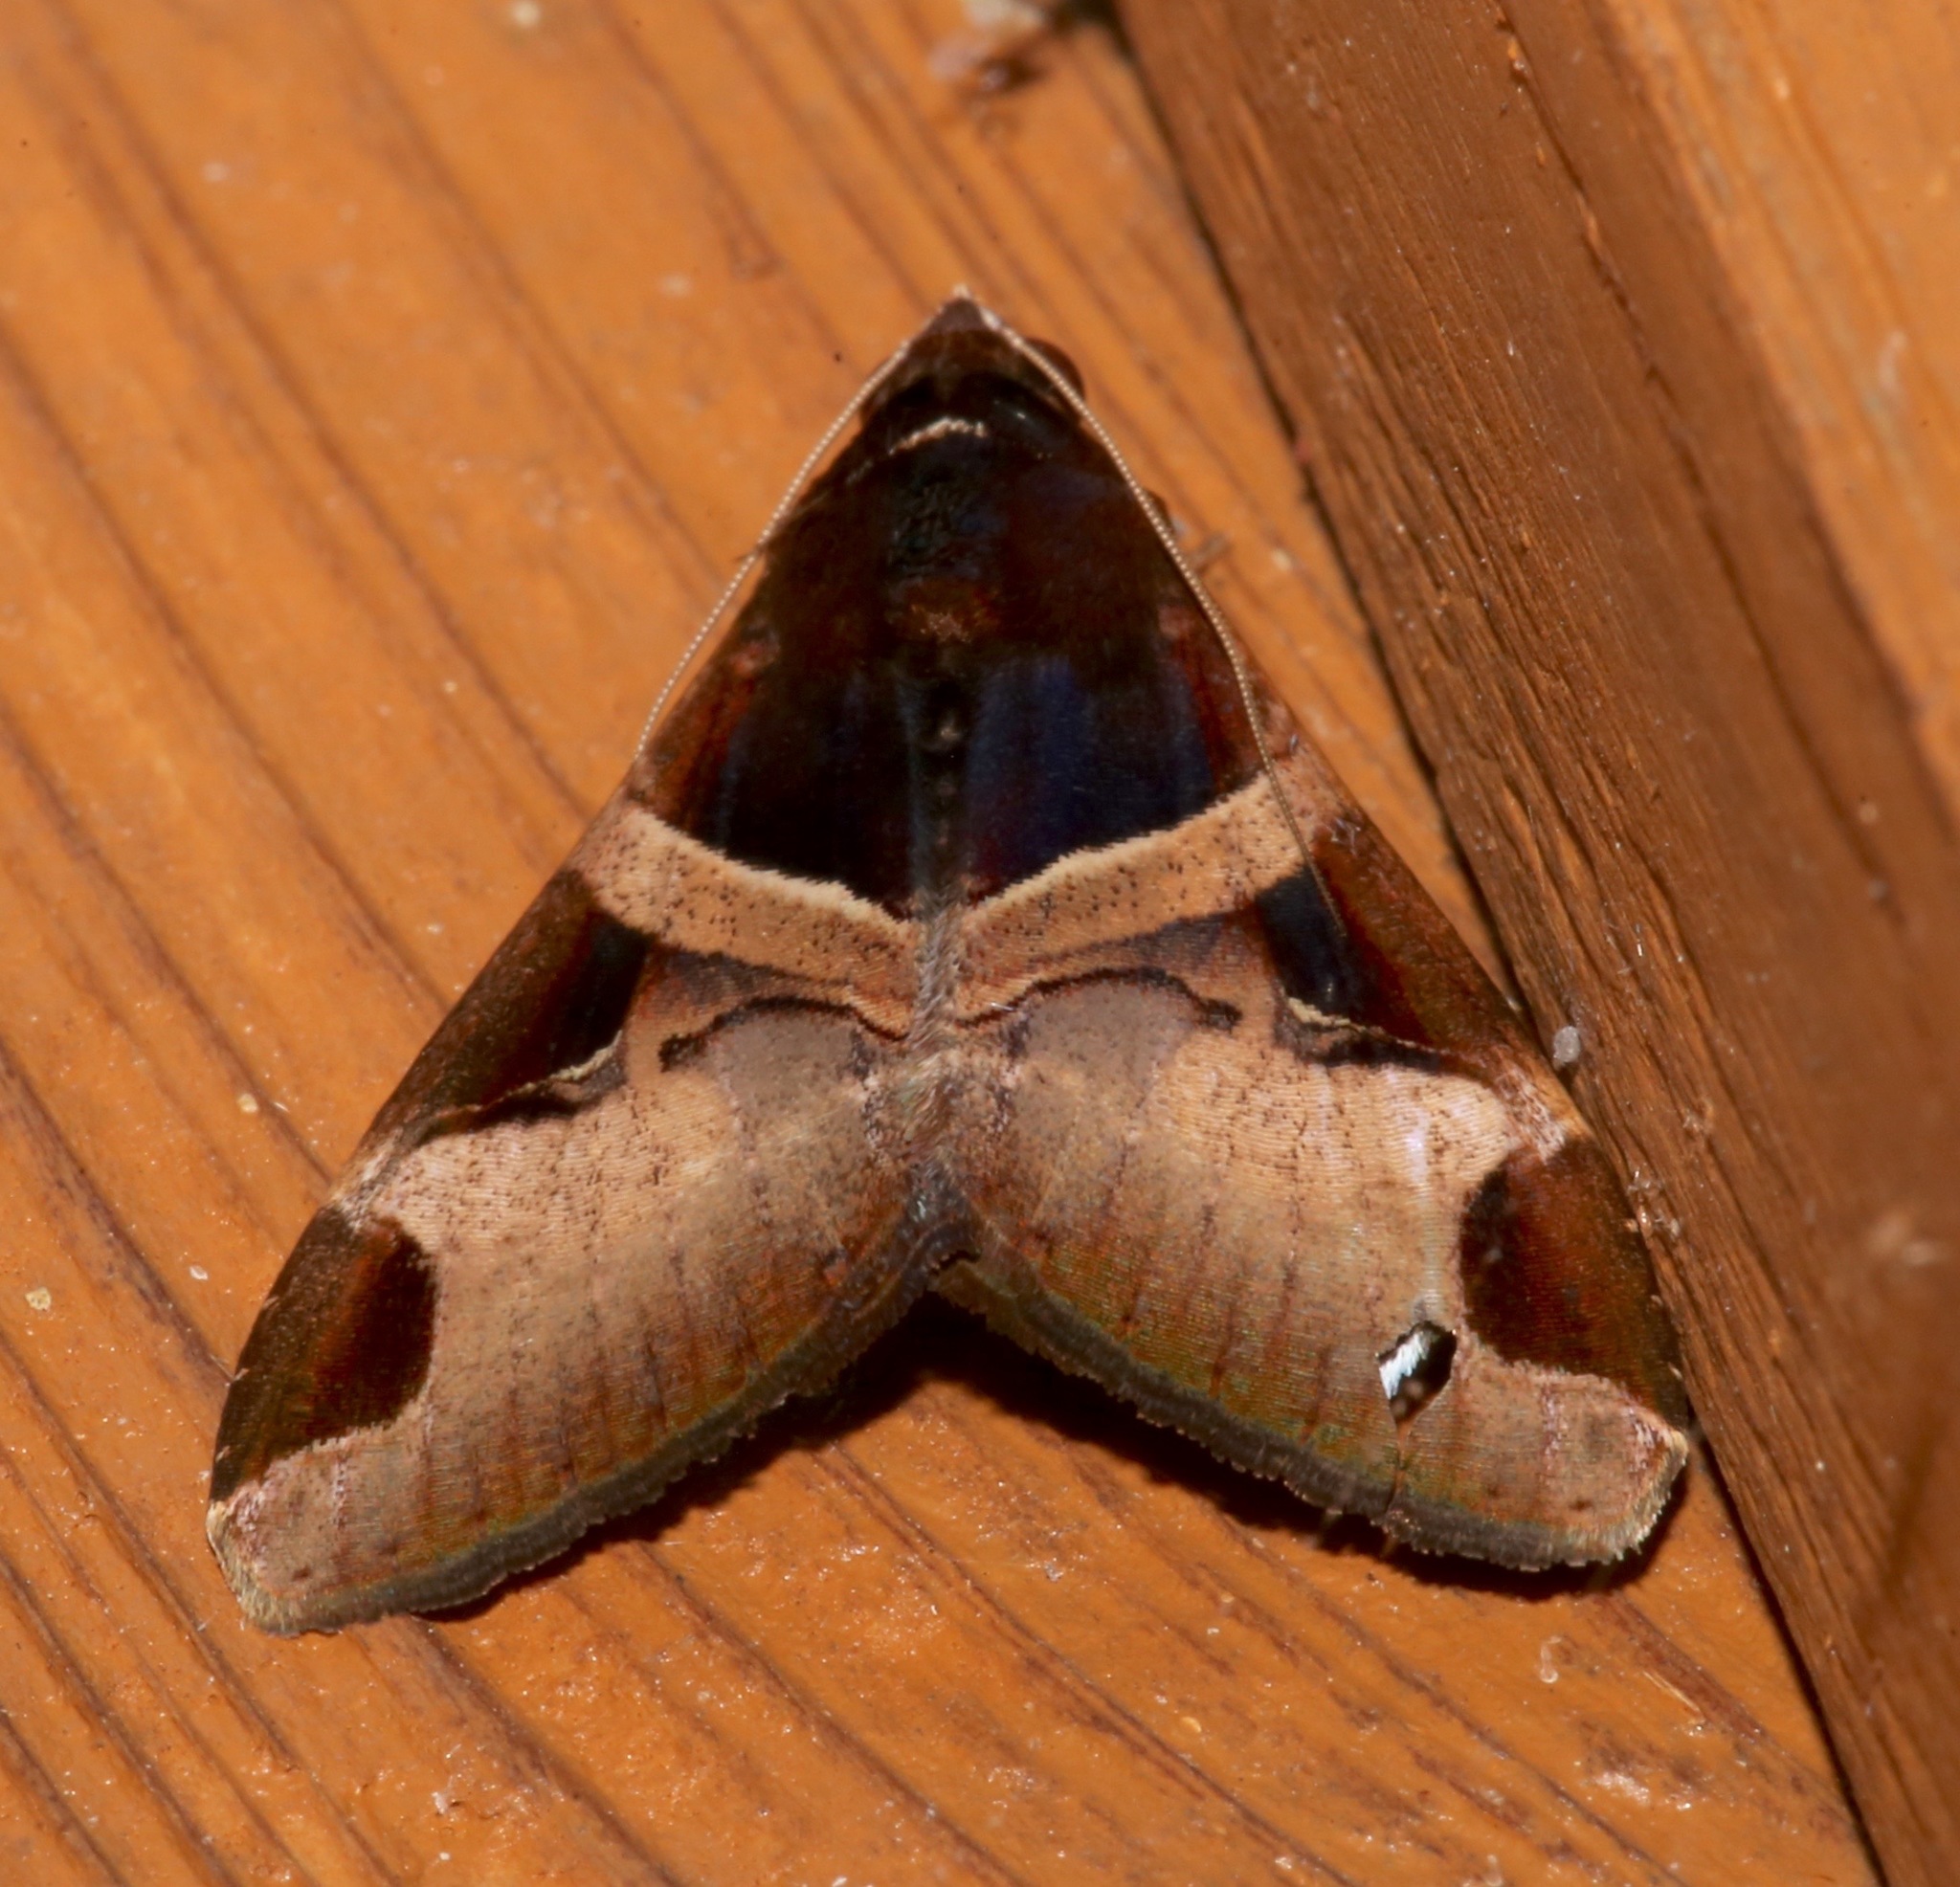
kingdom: Animalia
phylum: Arthropoda
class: Insecta
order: Lepidoptera
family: Erebidae
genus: Melipotis
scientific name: Melipotis fasciolaris
